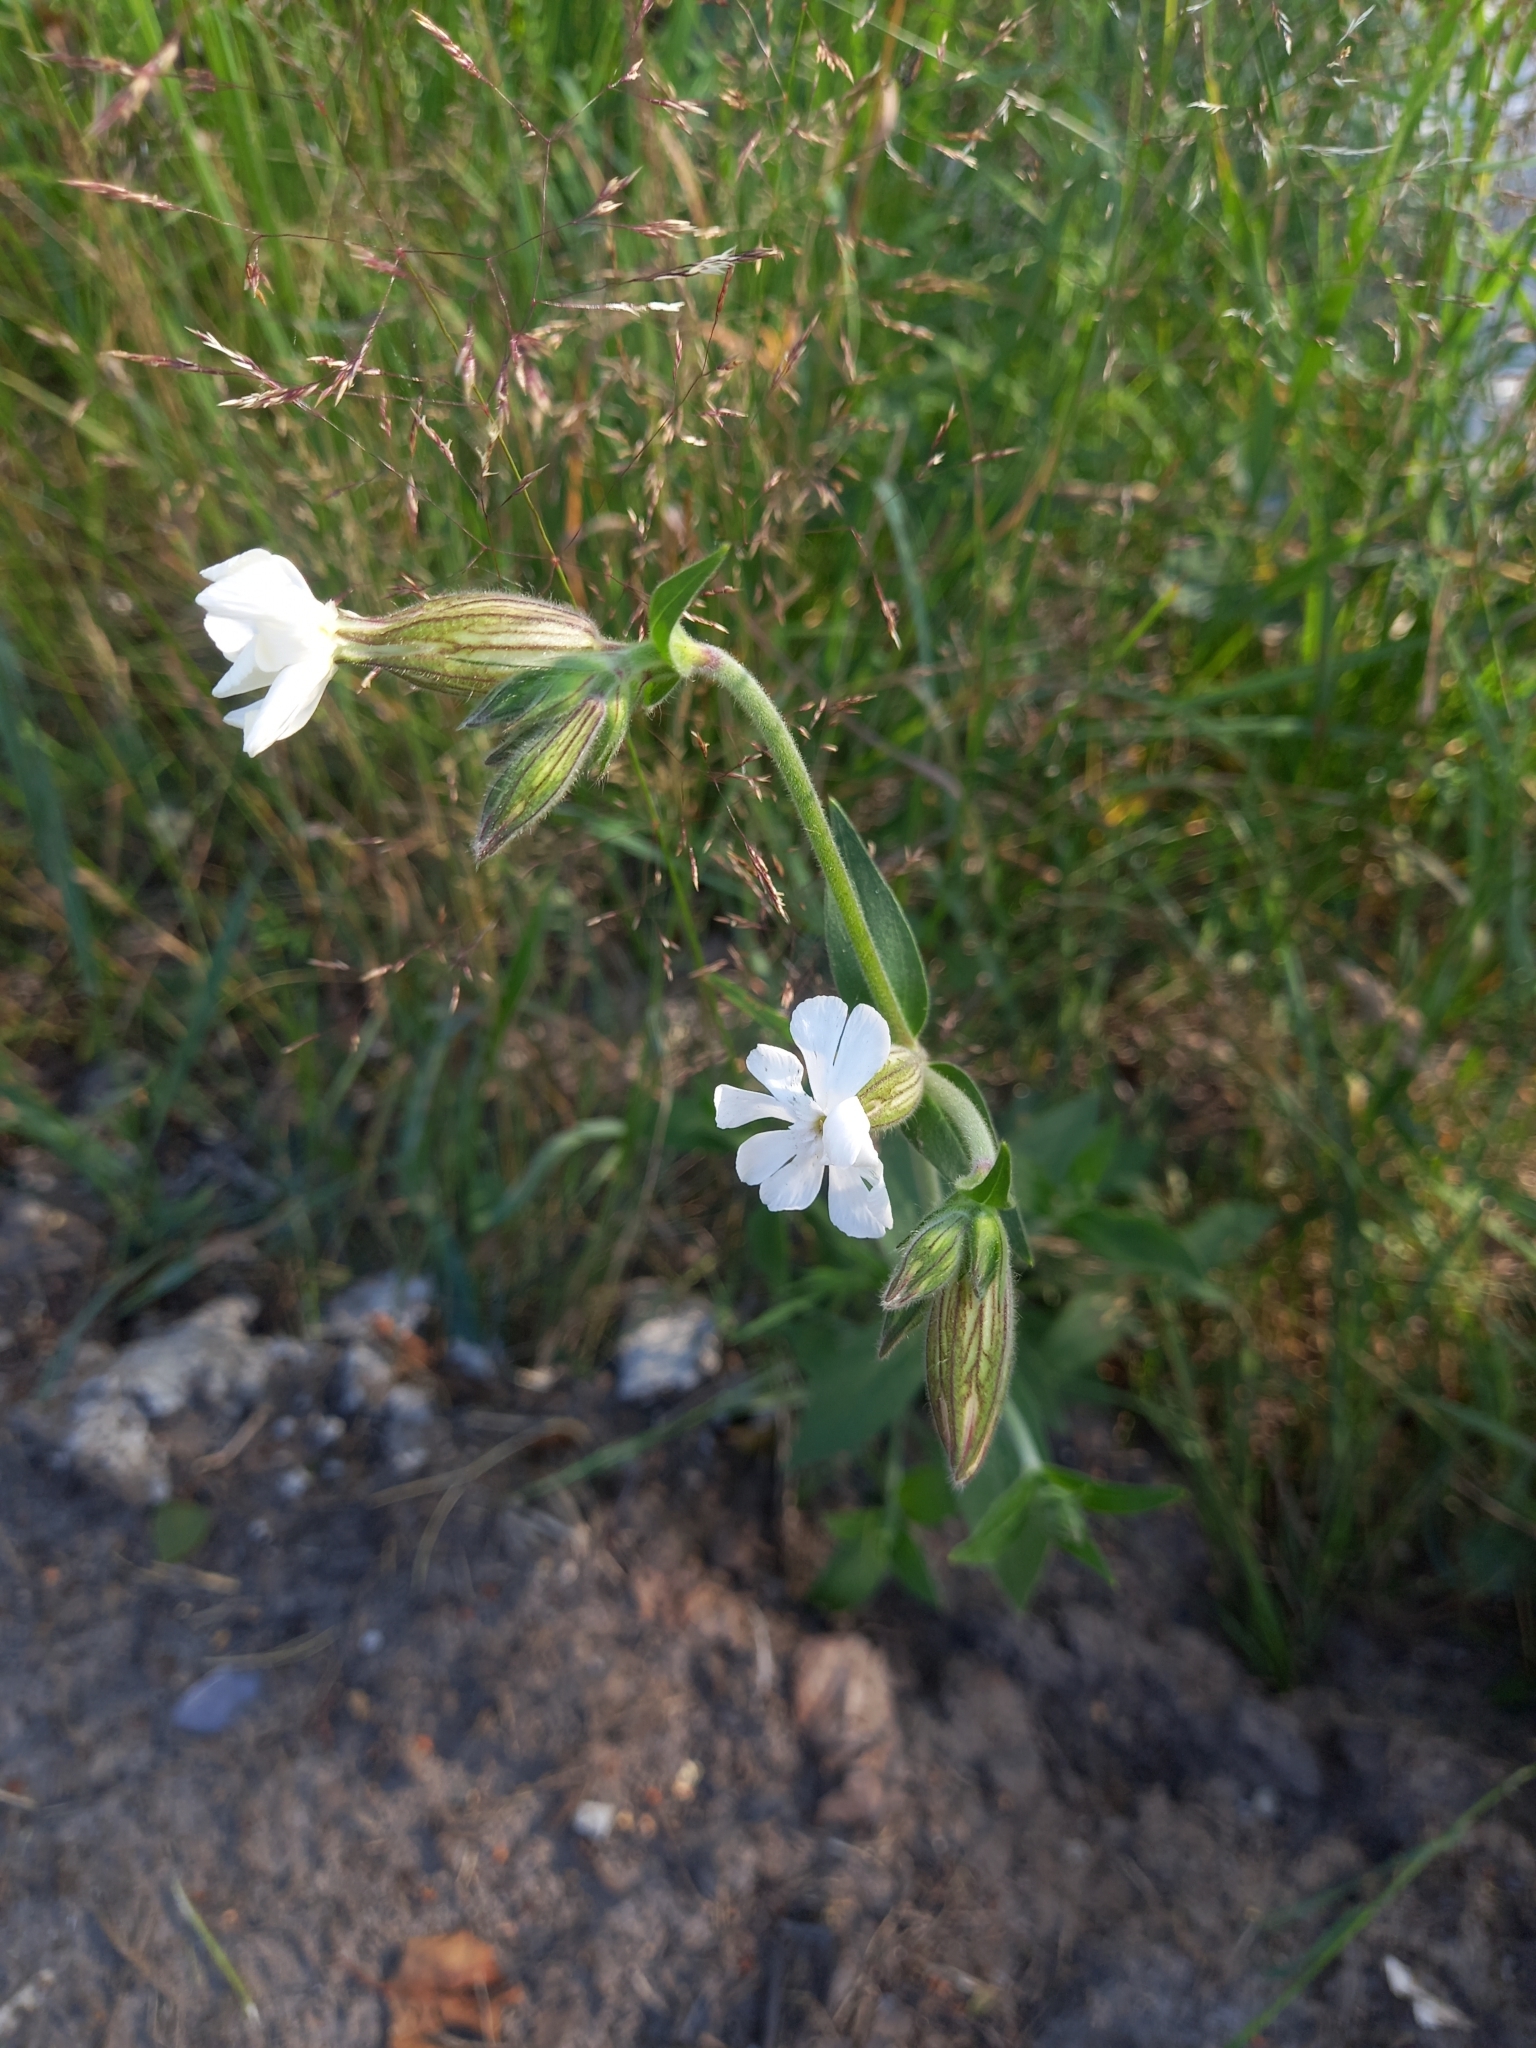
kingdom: Plantae
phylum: Tracheophyta
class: Magnoliopsida
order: Caryophyllales
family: Caryophyllaceae
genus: Silene
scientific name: Silene latifolia
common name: White campion
